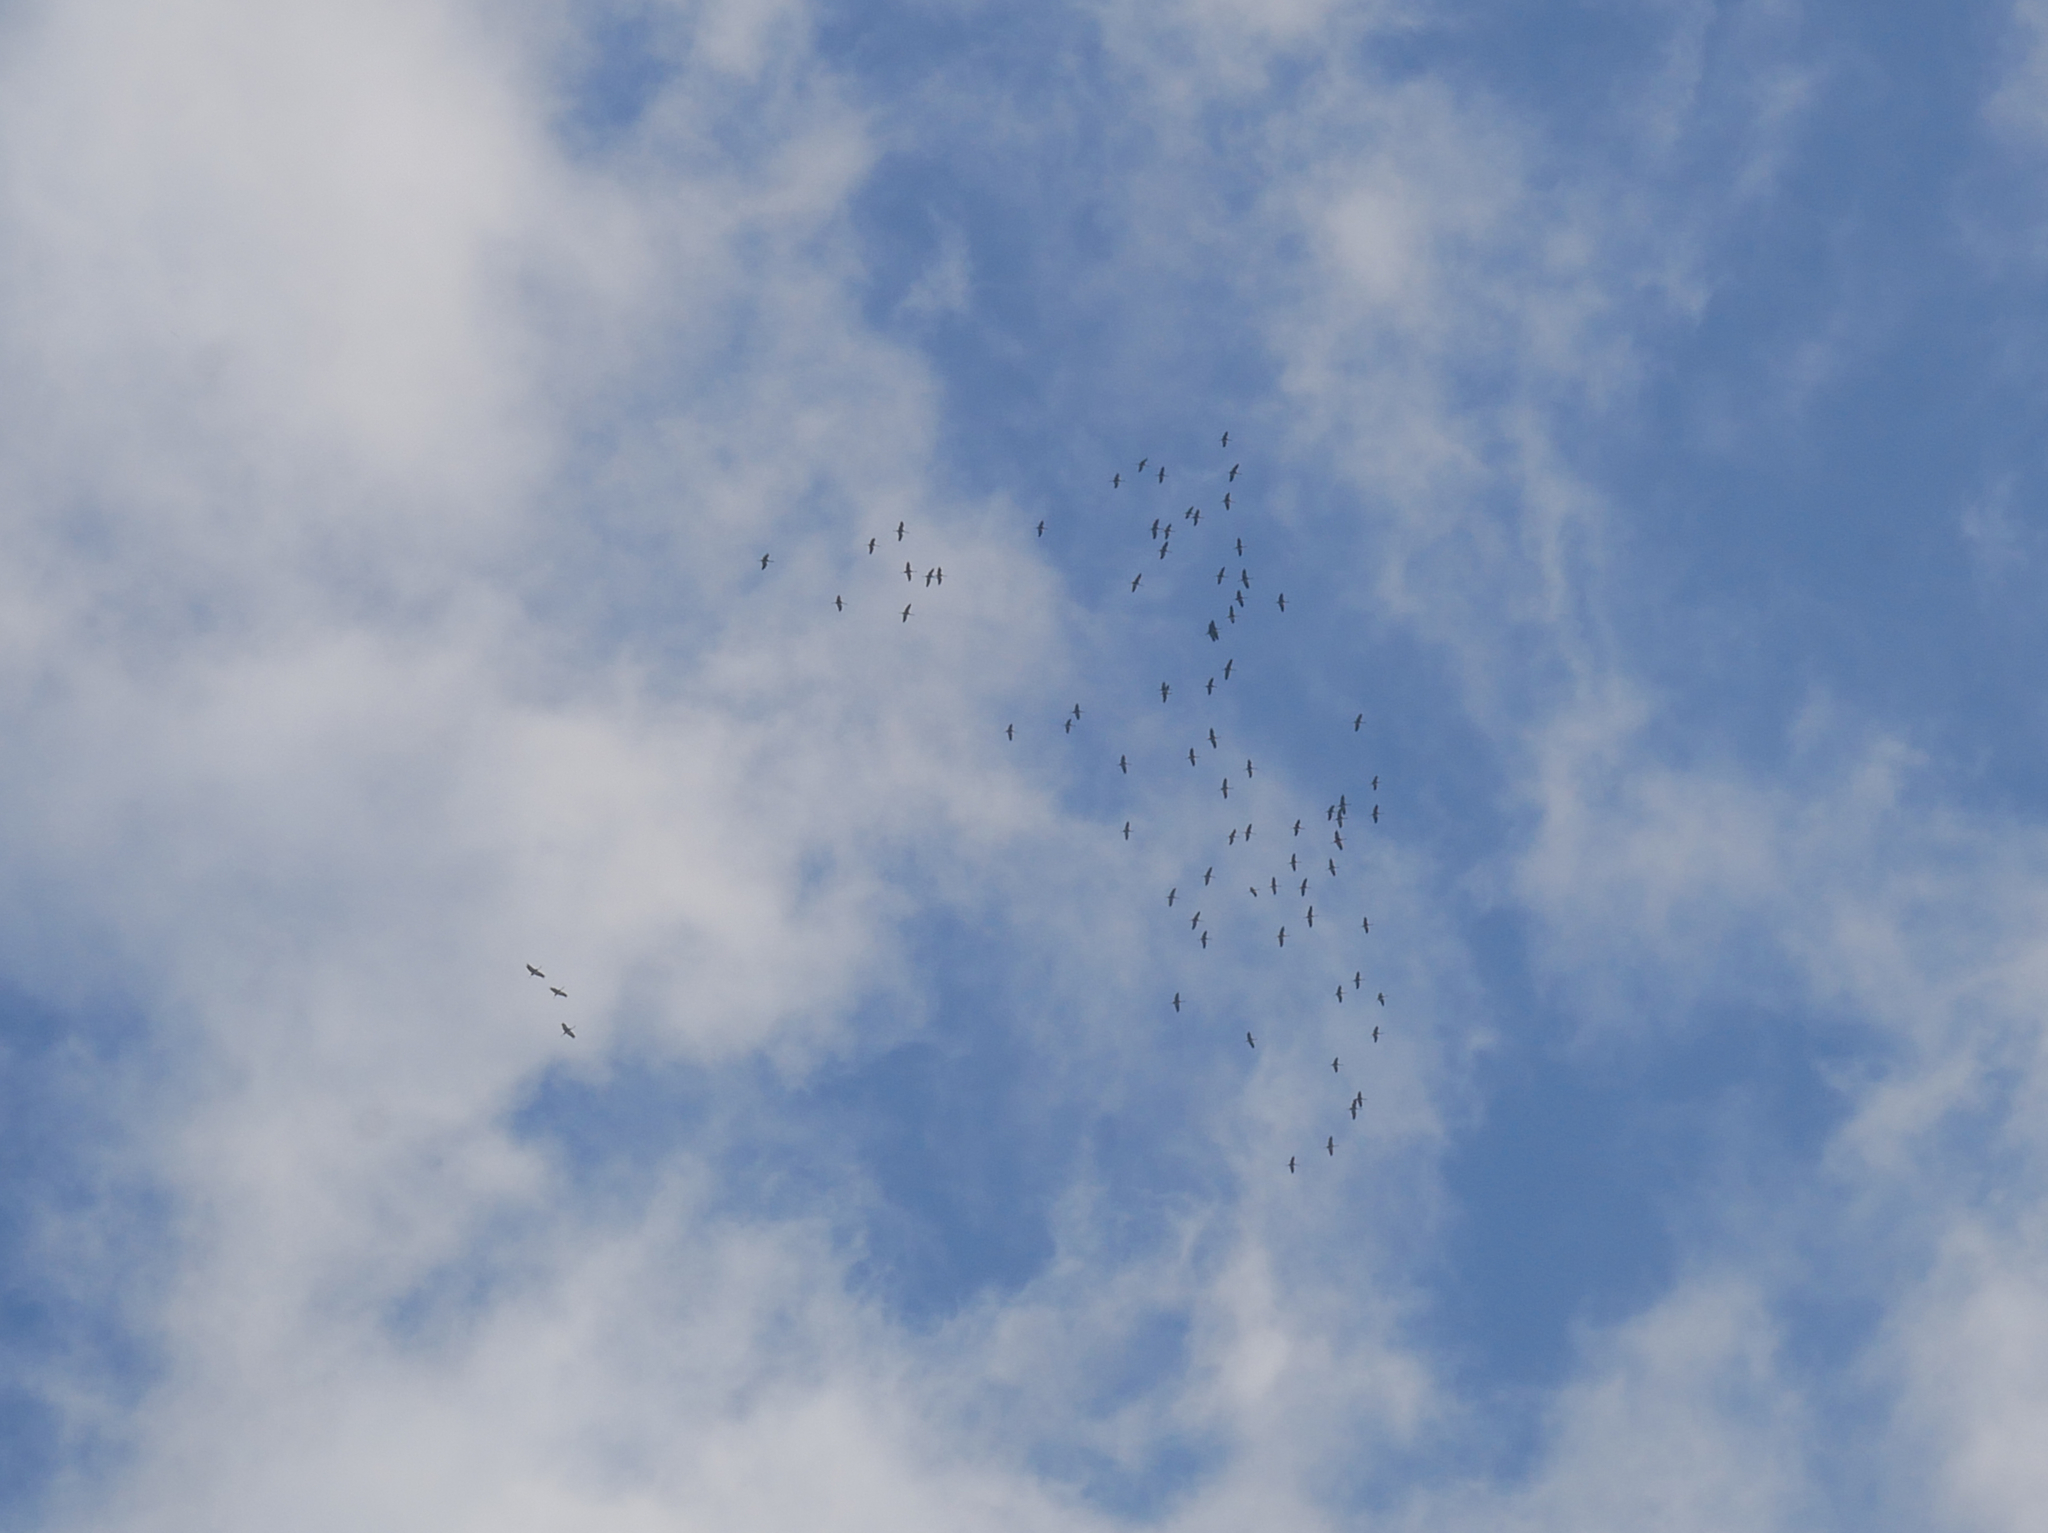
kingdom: Animalia
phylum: Chordata
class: Aves
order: Gruiformes
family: Gruidae
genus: Grus
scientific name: Grus grus
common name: Common crane
